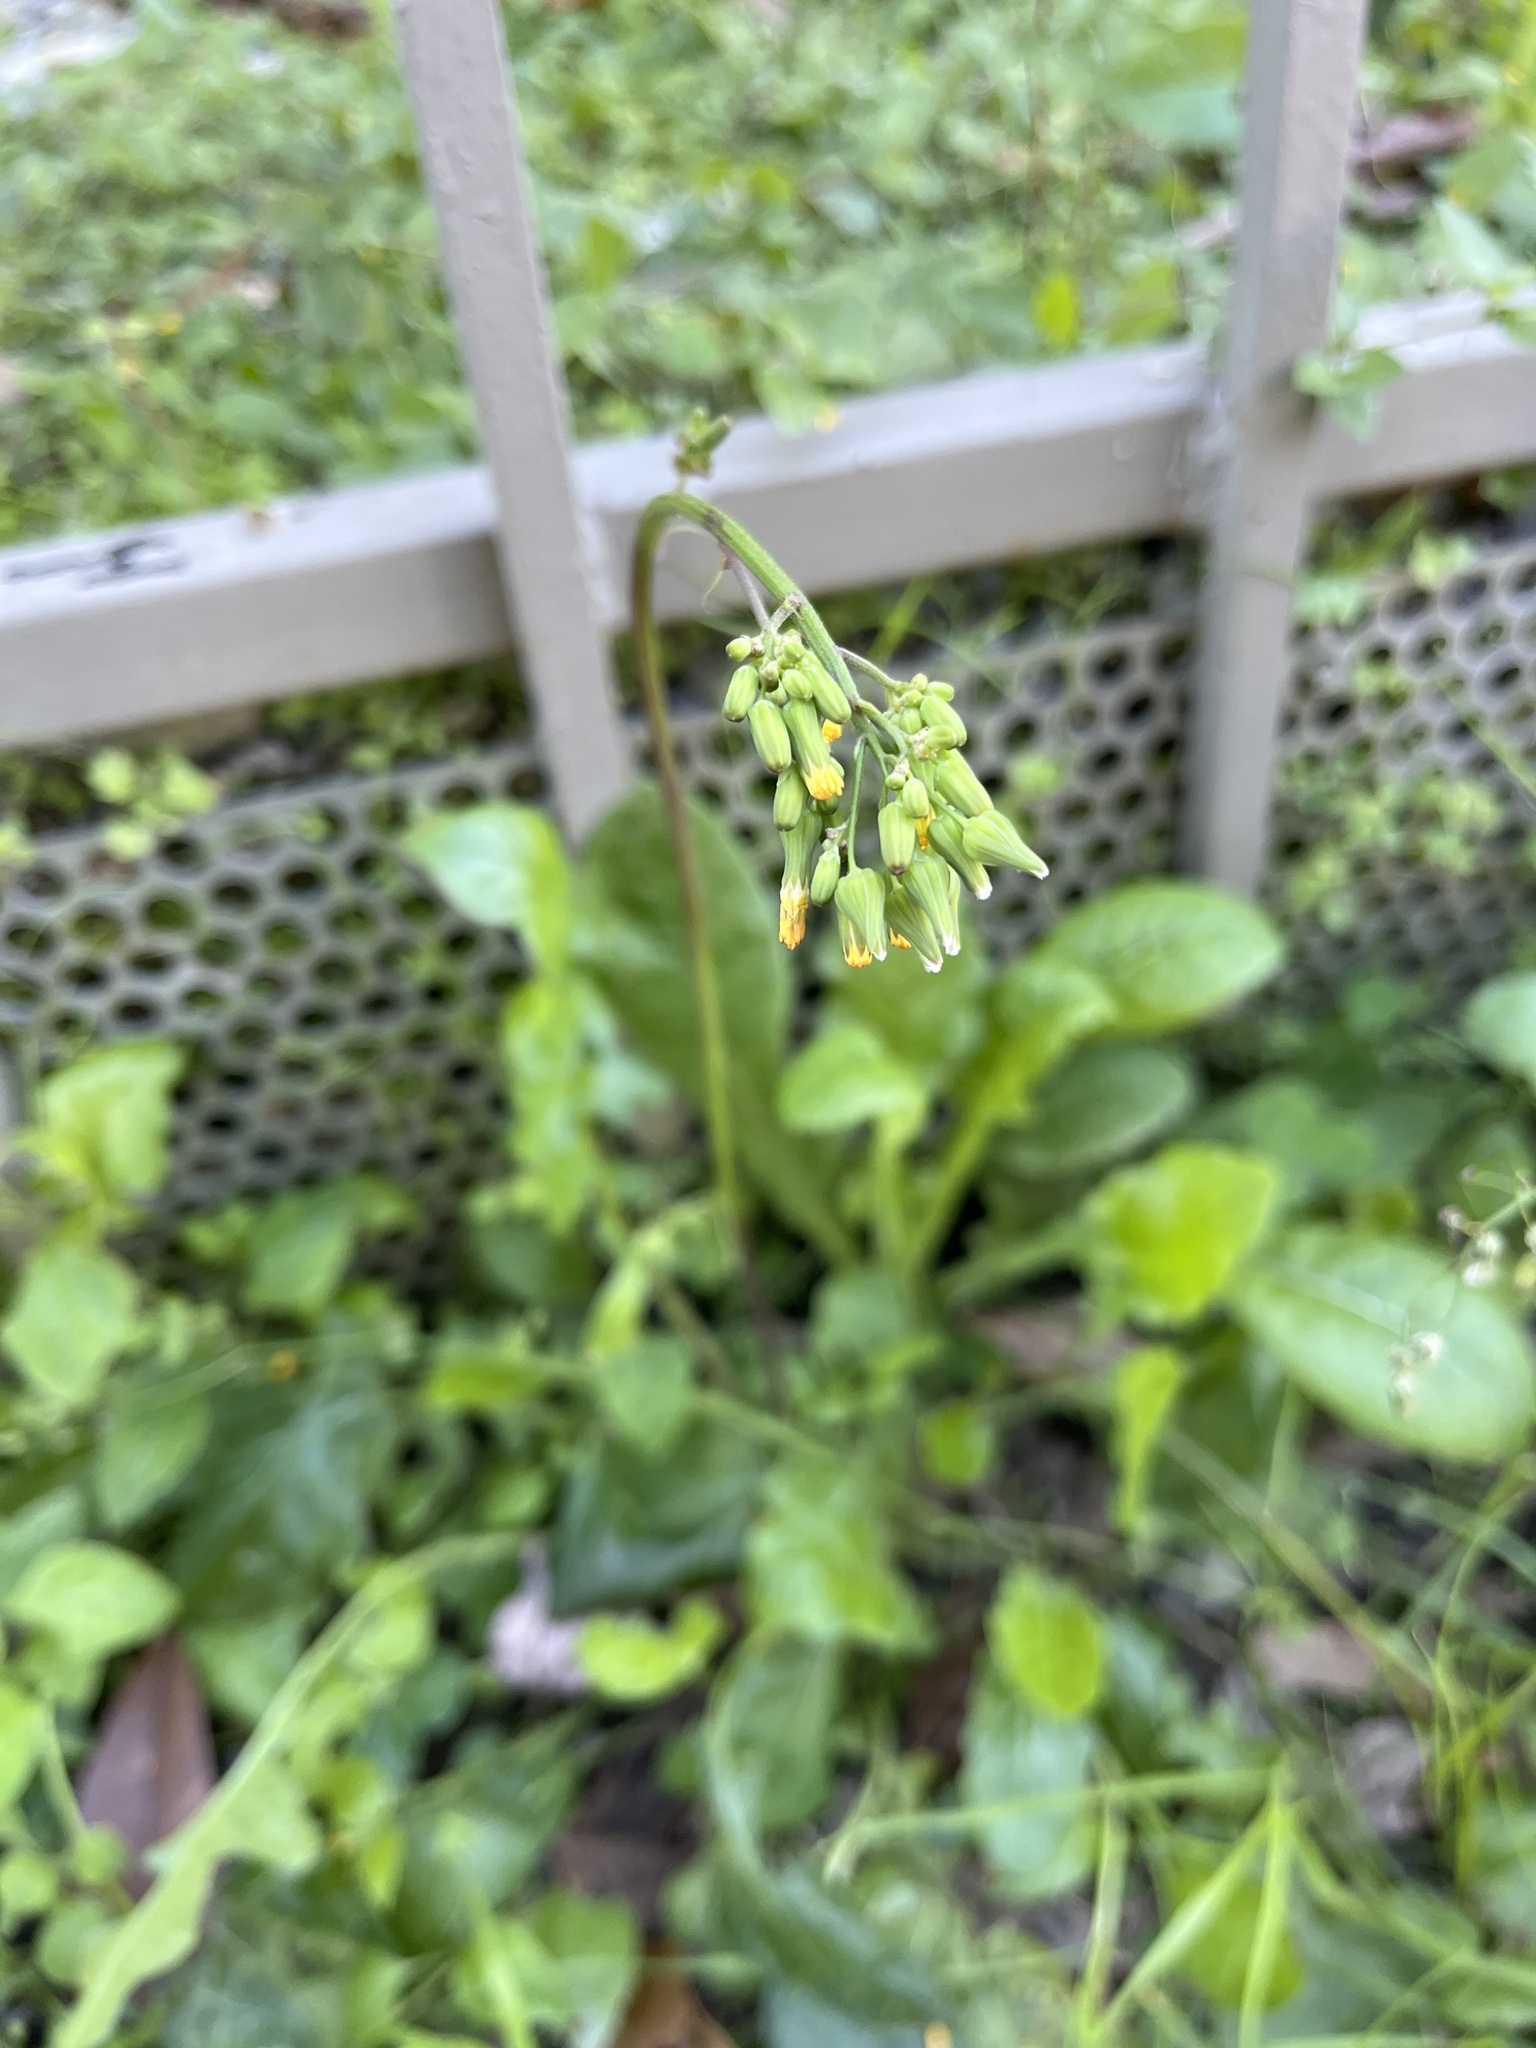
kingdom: Plantae
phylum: Tracheophyta
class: Magnoliopsida
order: Asterales
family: Asteraceae
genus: Youngia
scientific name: Youngia japonica
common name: Oriental false hawksbeard
